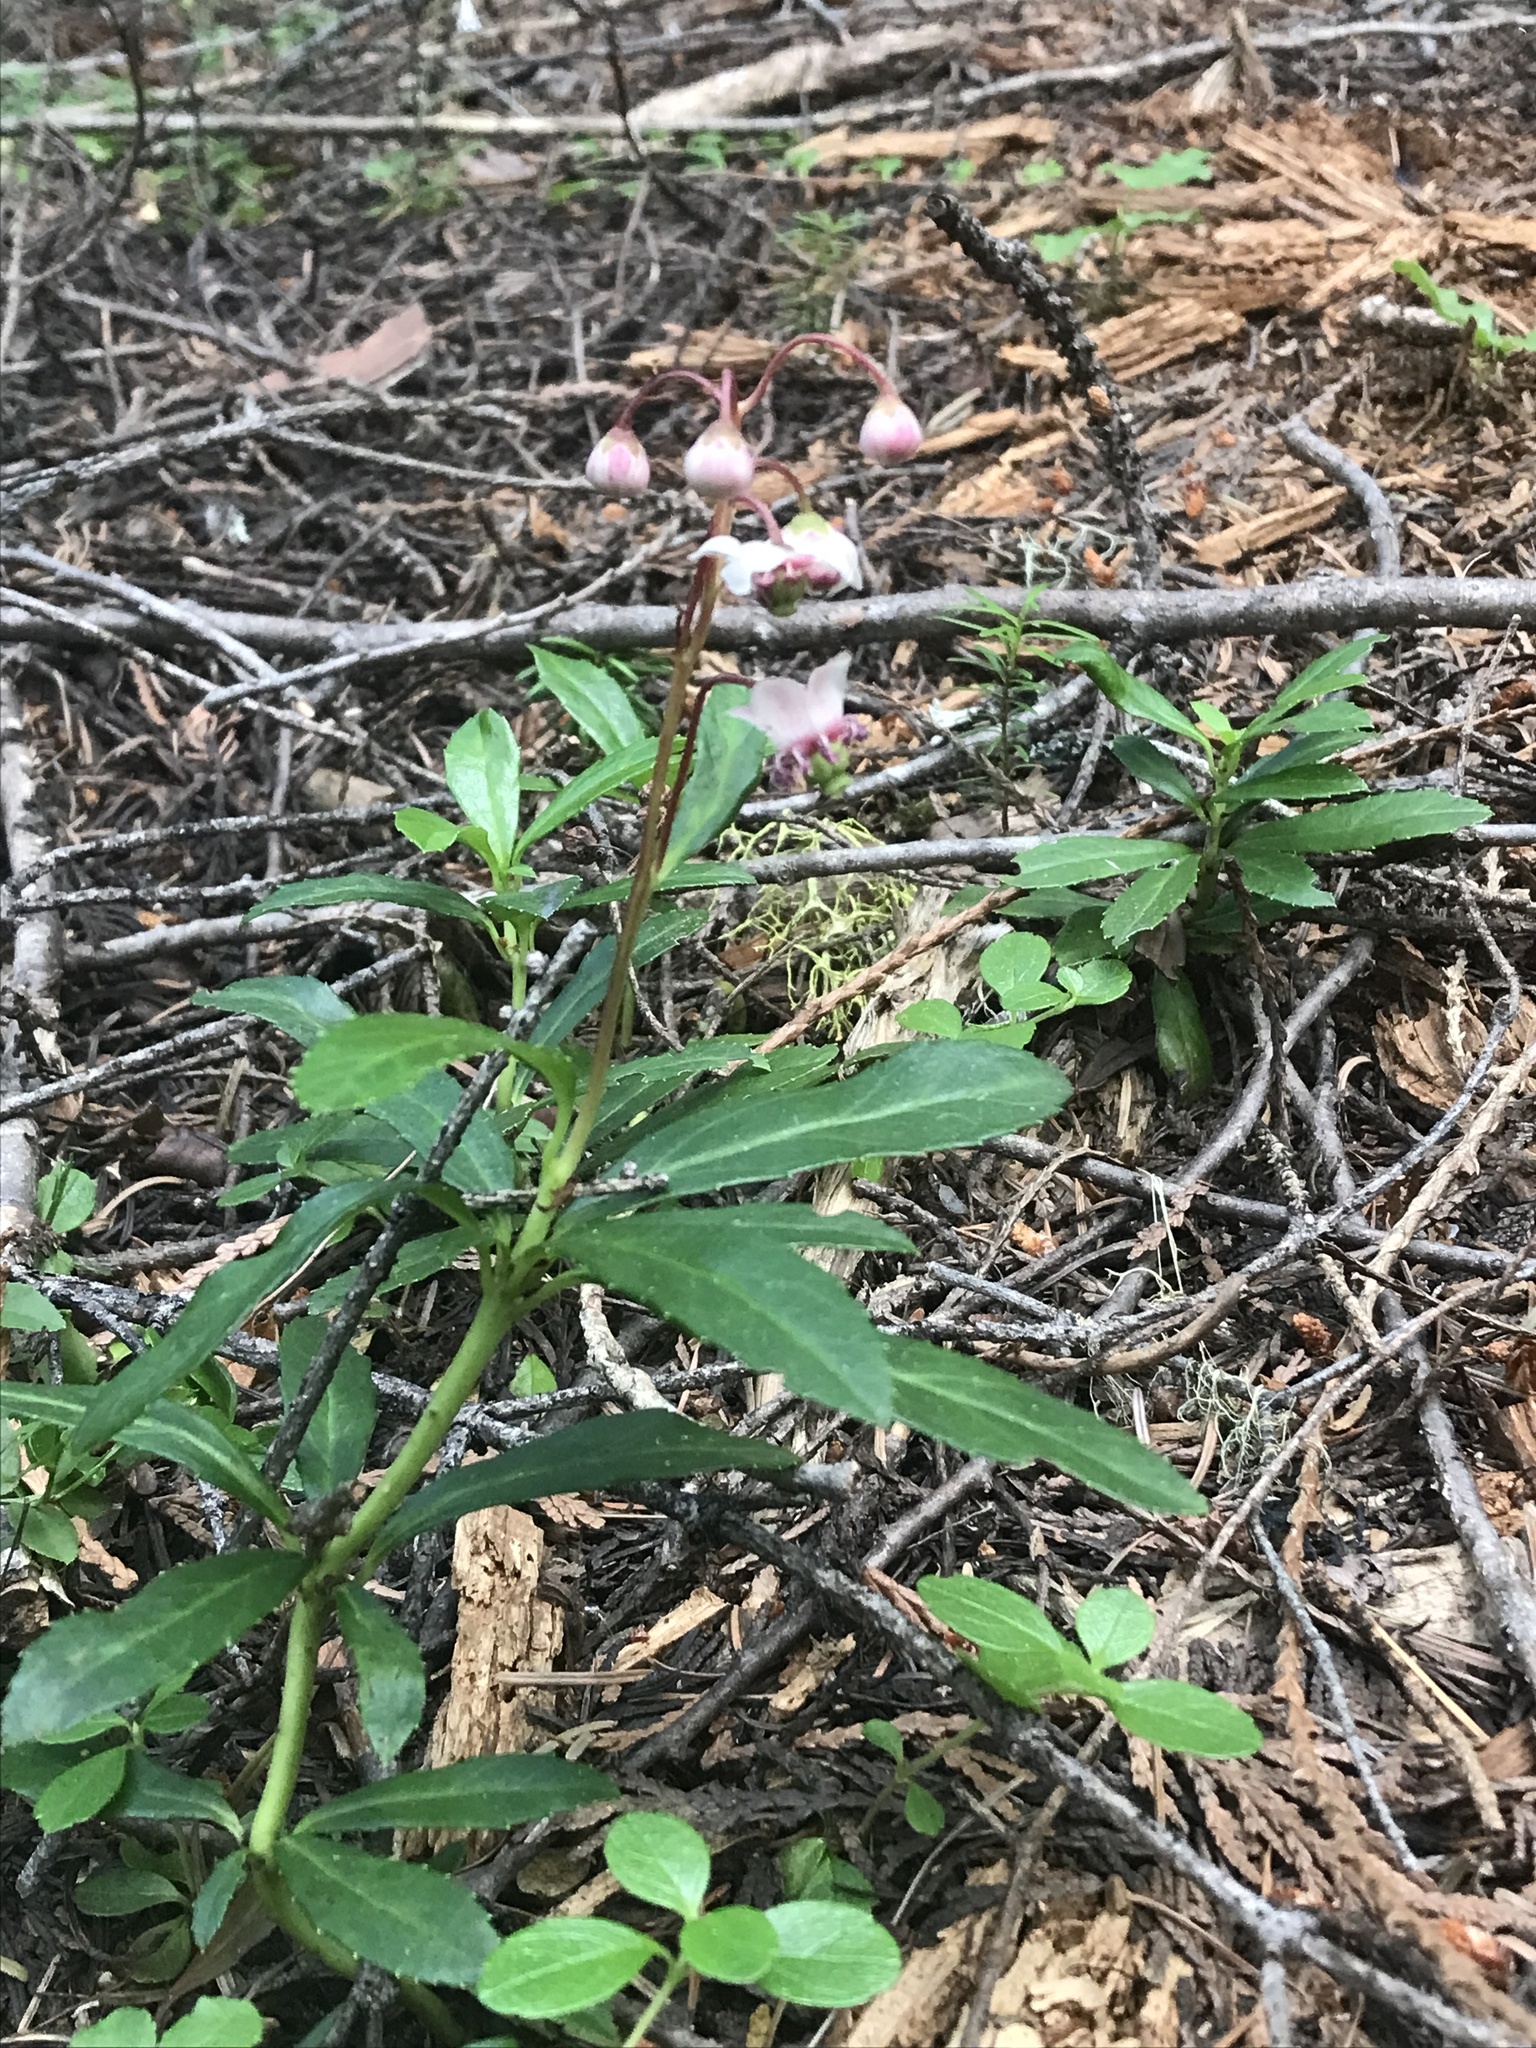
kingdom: Plantae
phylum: Tracheophyta
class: Magnoliopsida
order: Ericales
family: Ericaceae
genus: Chimaphila
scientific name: Chimaphila umbellata
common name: Pipsissewa
